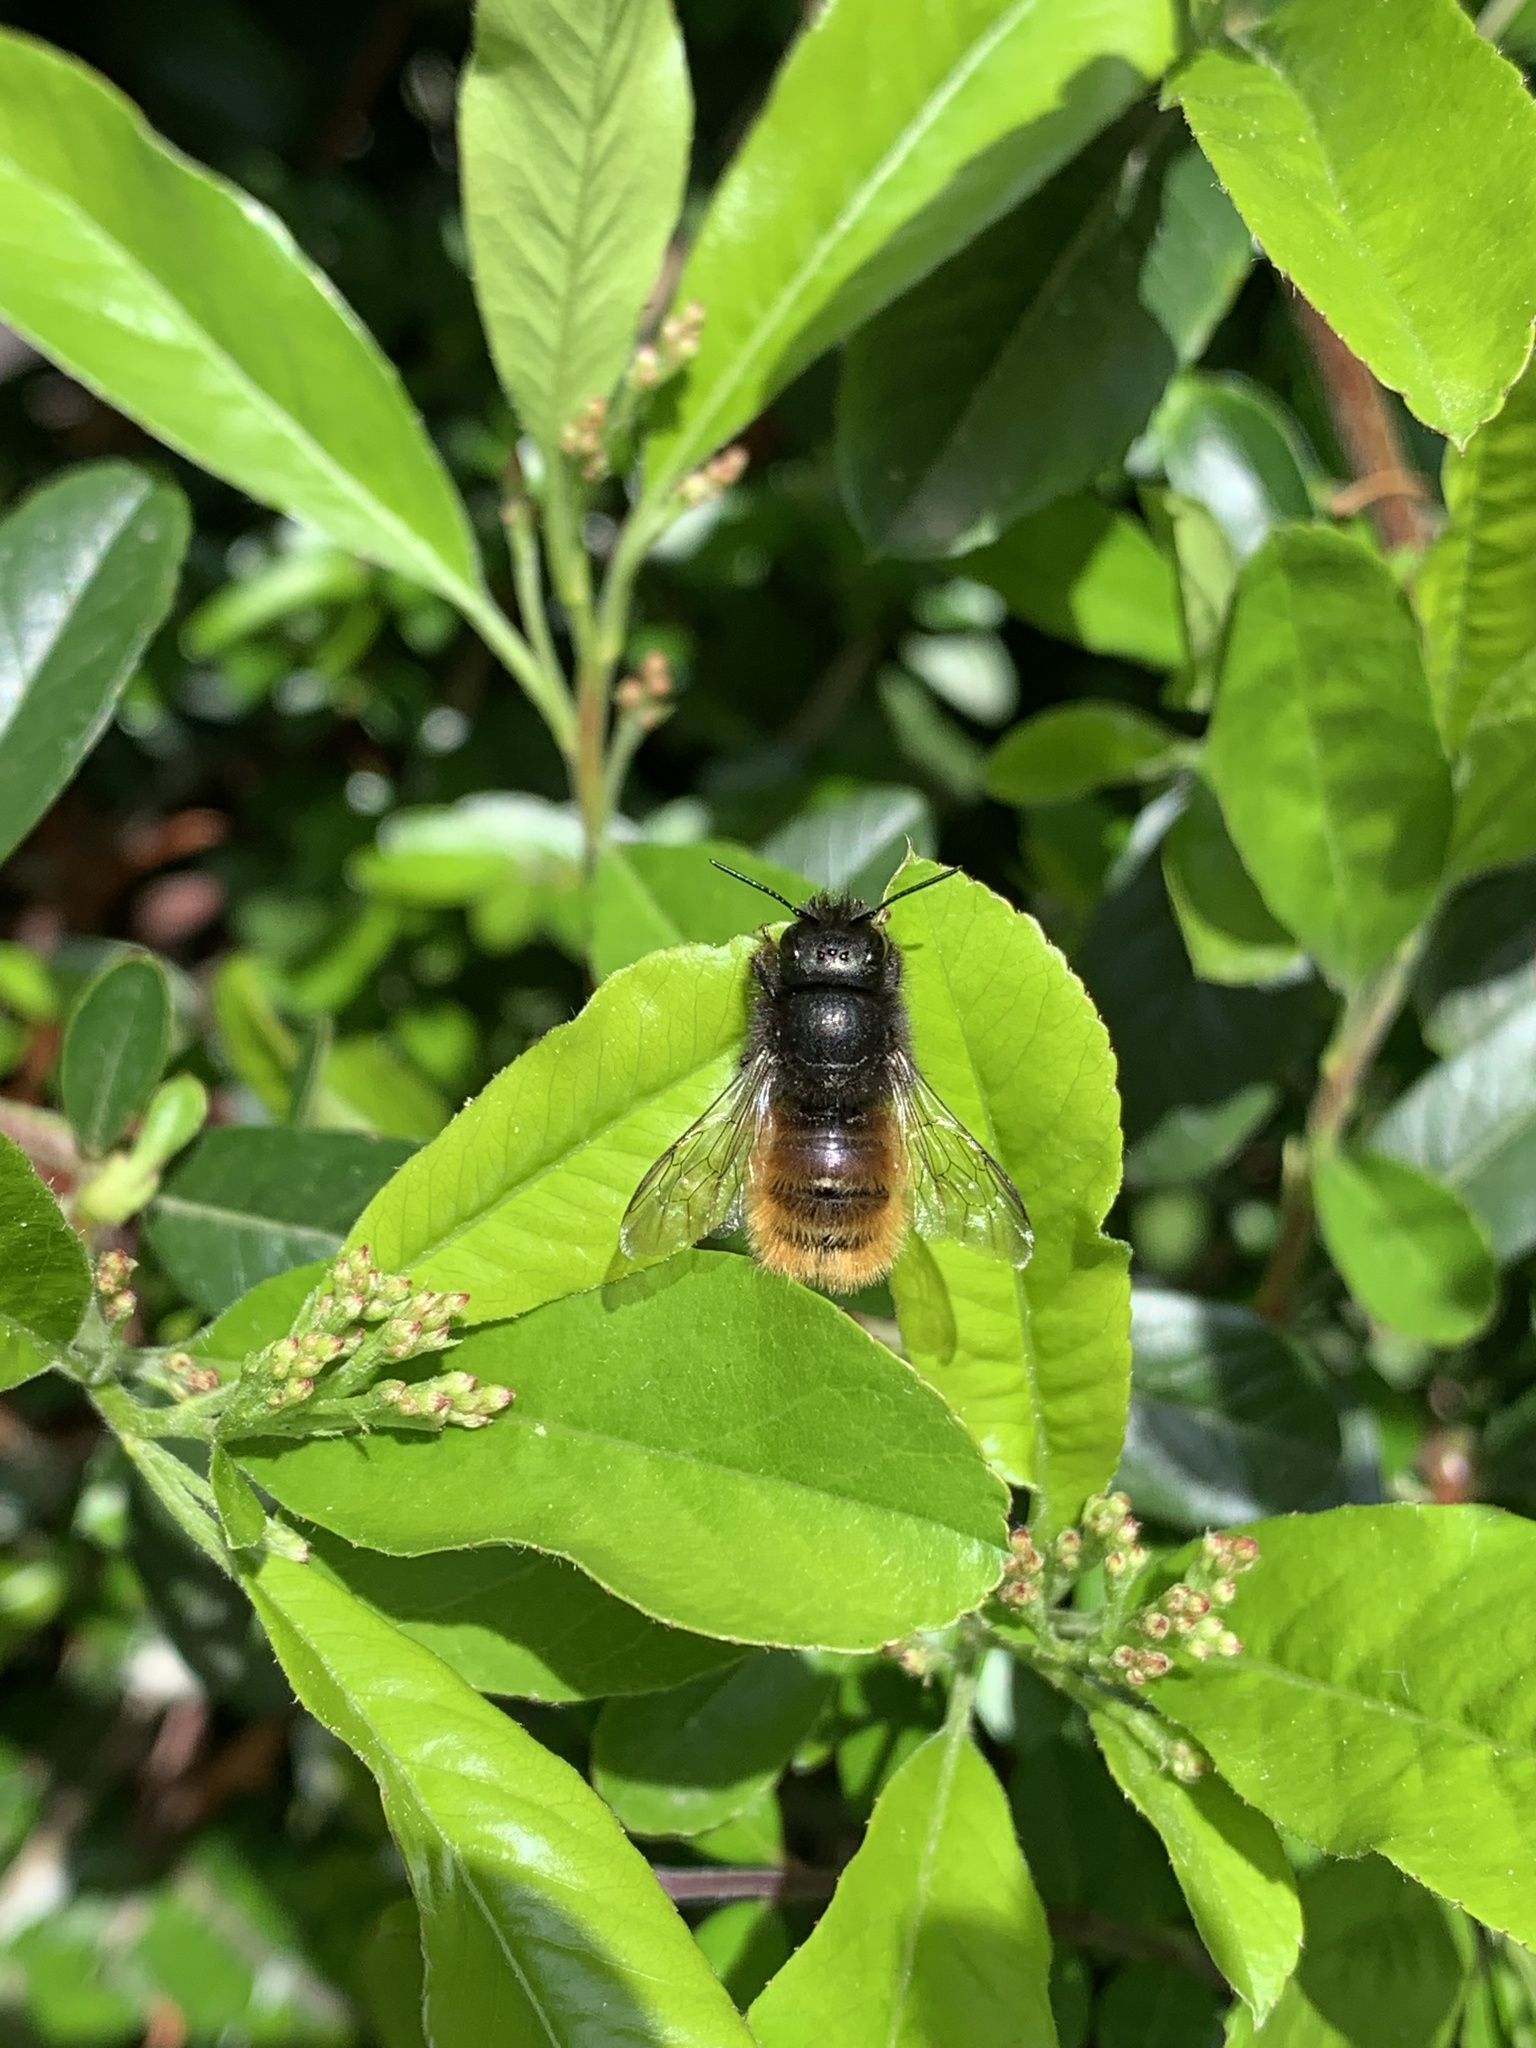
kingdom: Animalia
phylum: Arthropoda
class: Insecta
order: Hymenoptera
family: Megachilidae
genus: Osmia
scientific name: Osmia cornuta
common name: Mason bee
